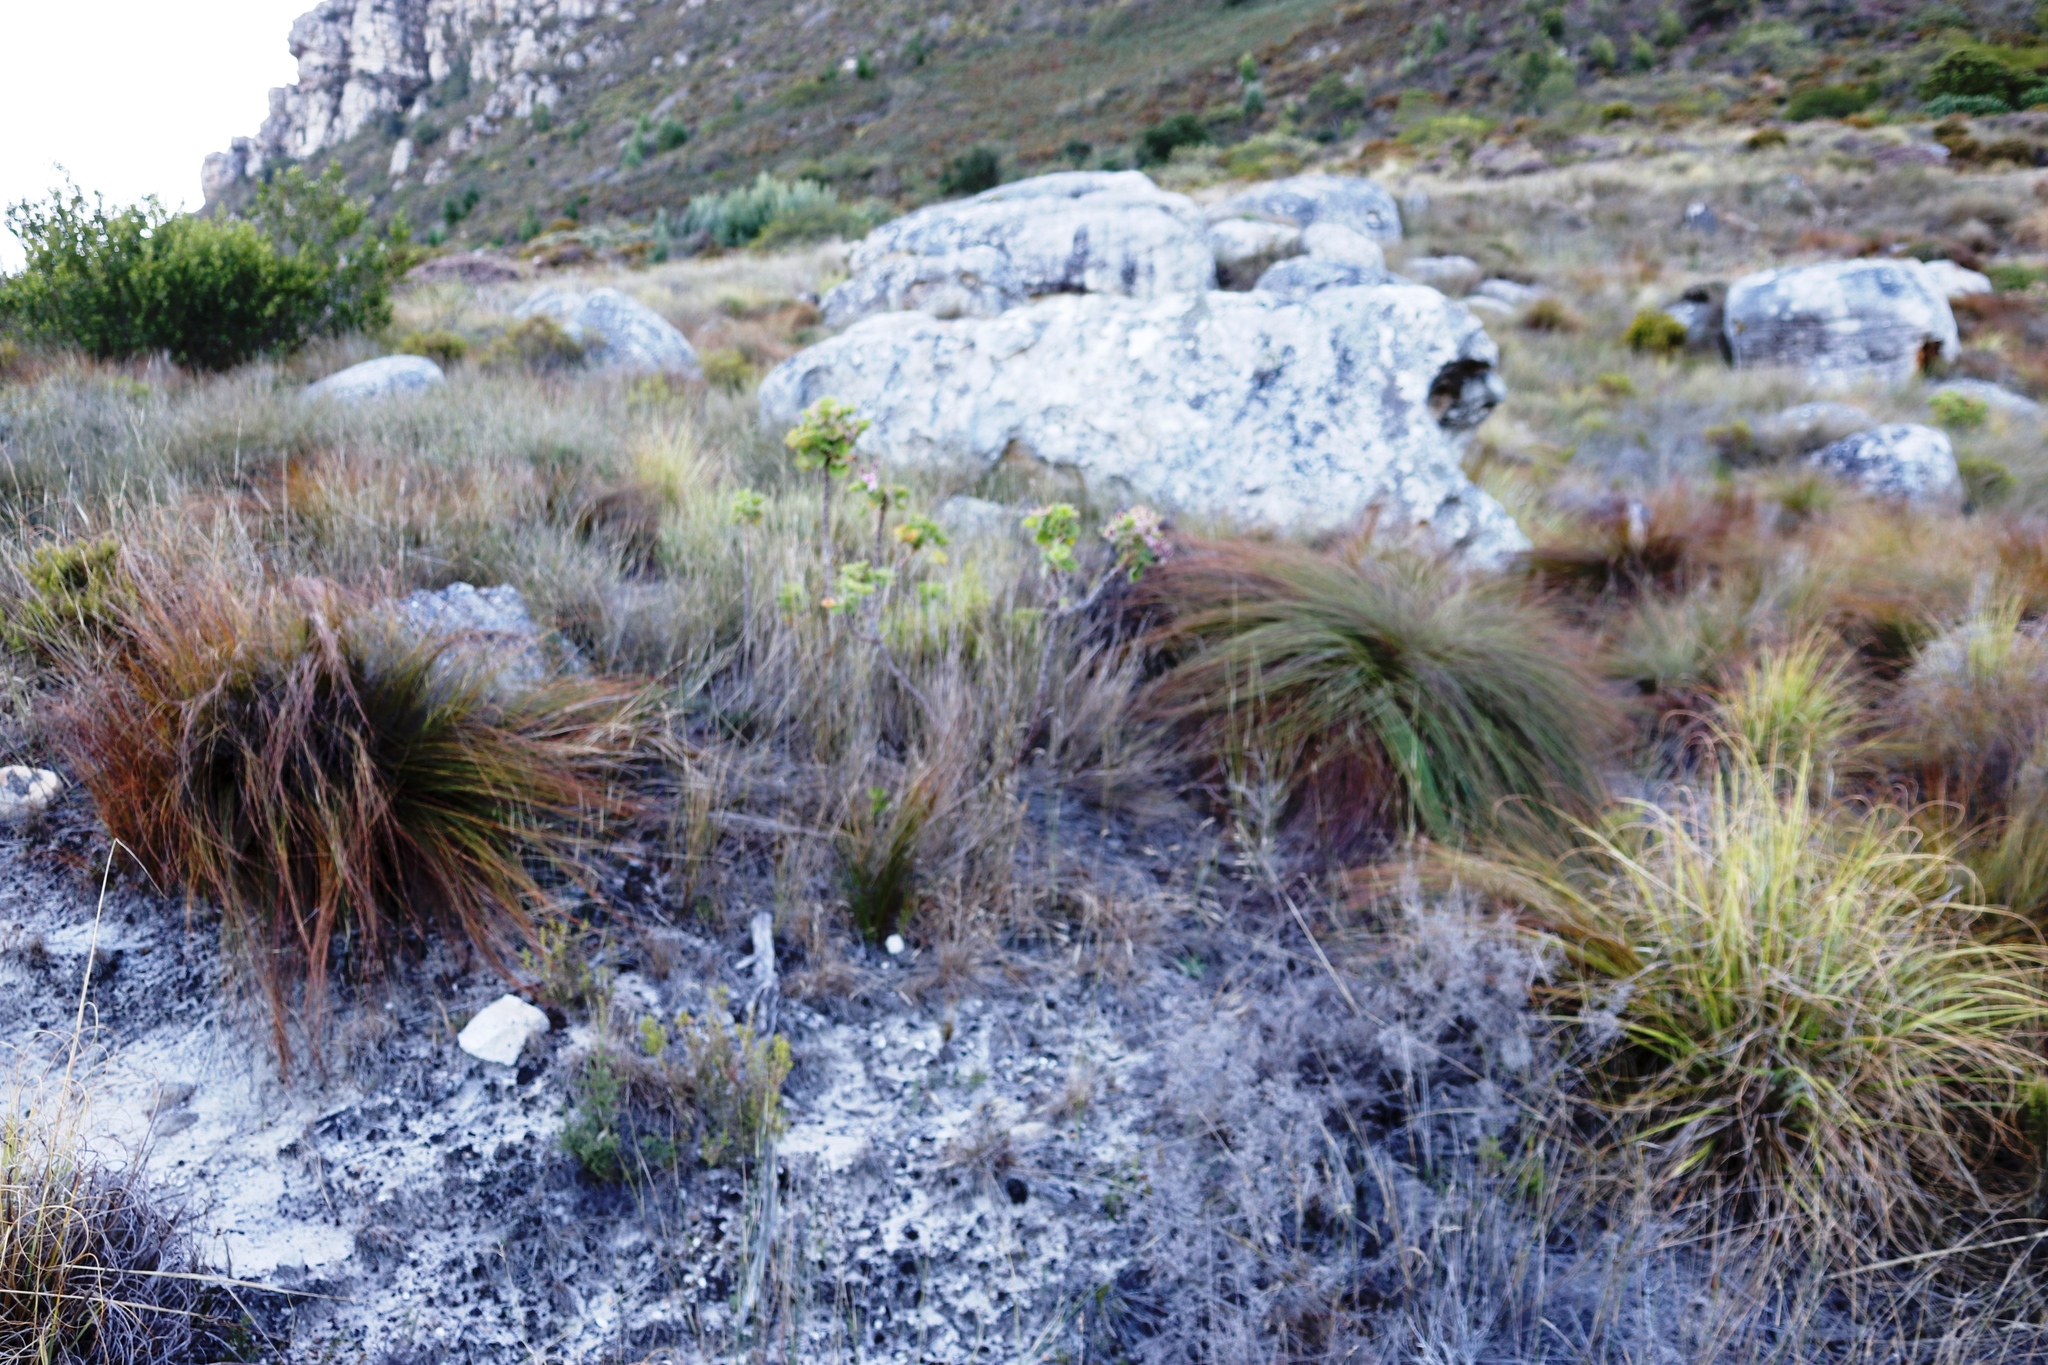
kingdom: Plantae
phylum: Tracheophyta
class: Magnoliopsida
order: Geraniales
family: Geraniaceae
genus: Pelargonium
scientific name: Pelargonium cucullatum
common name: Tree pelargonium
